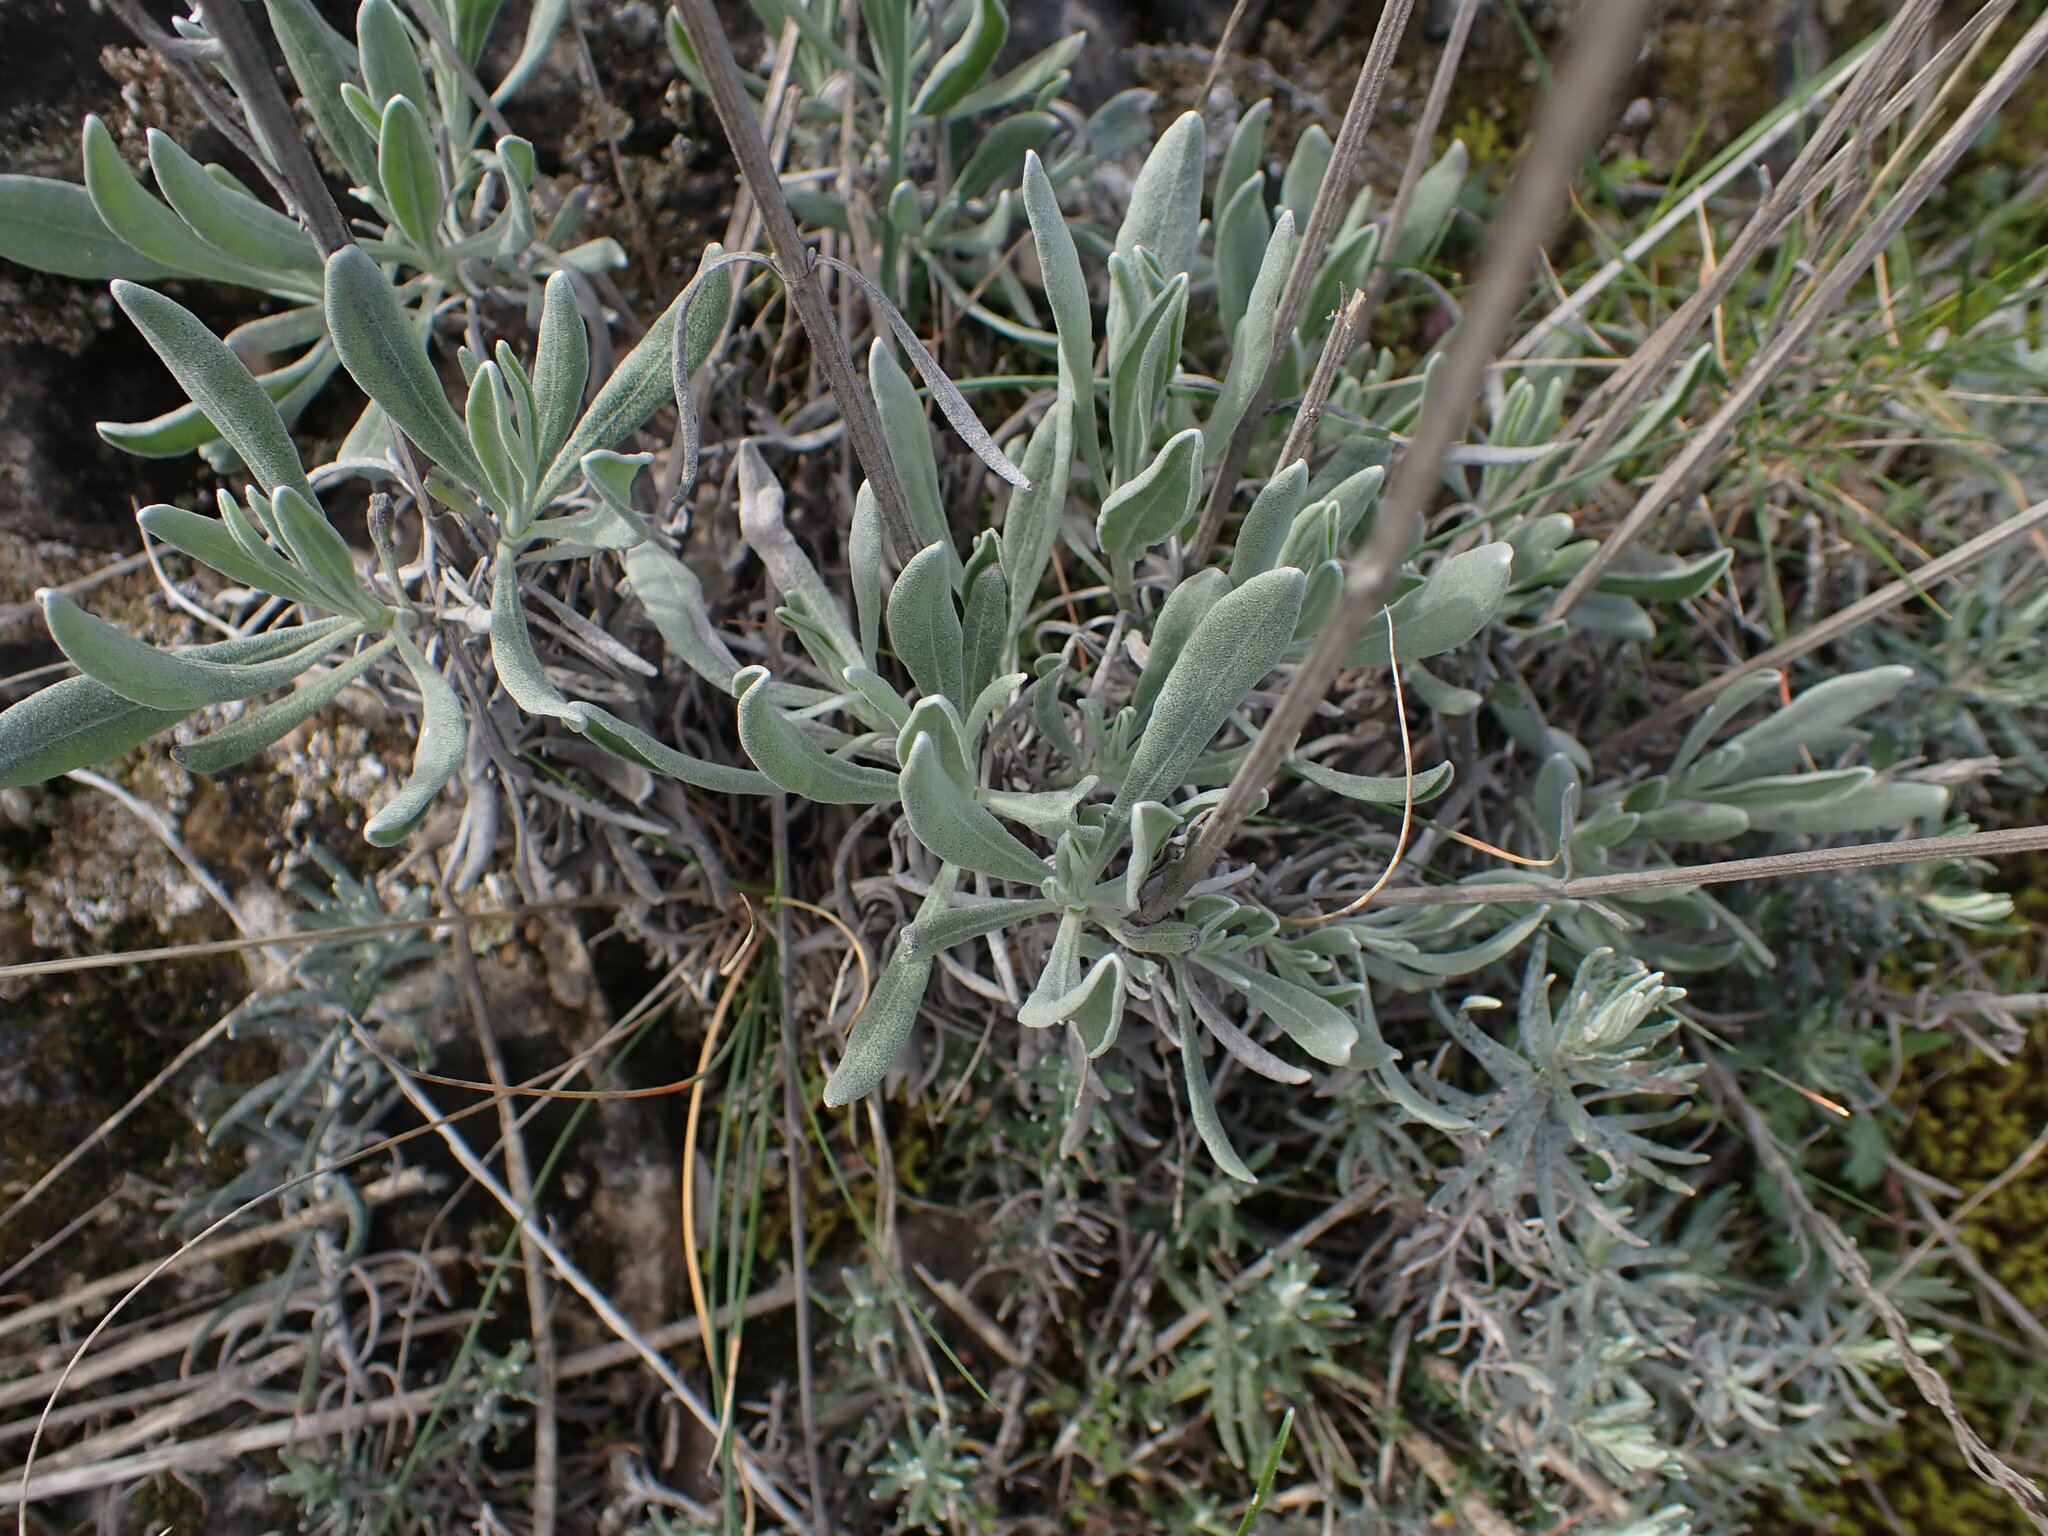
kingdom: Plantae
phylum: Tracheophyta
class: Magnoliopsida
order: Lamiales
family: Lamiaceae
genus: Lavandula
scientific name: Lavandula latifolia
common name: Spike lavendar
